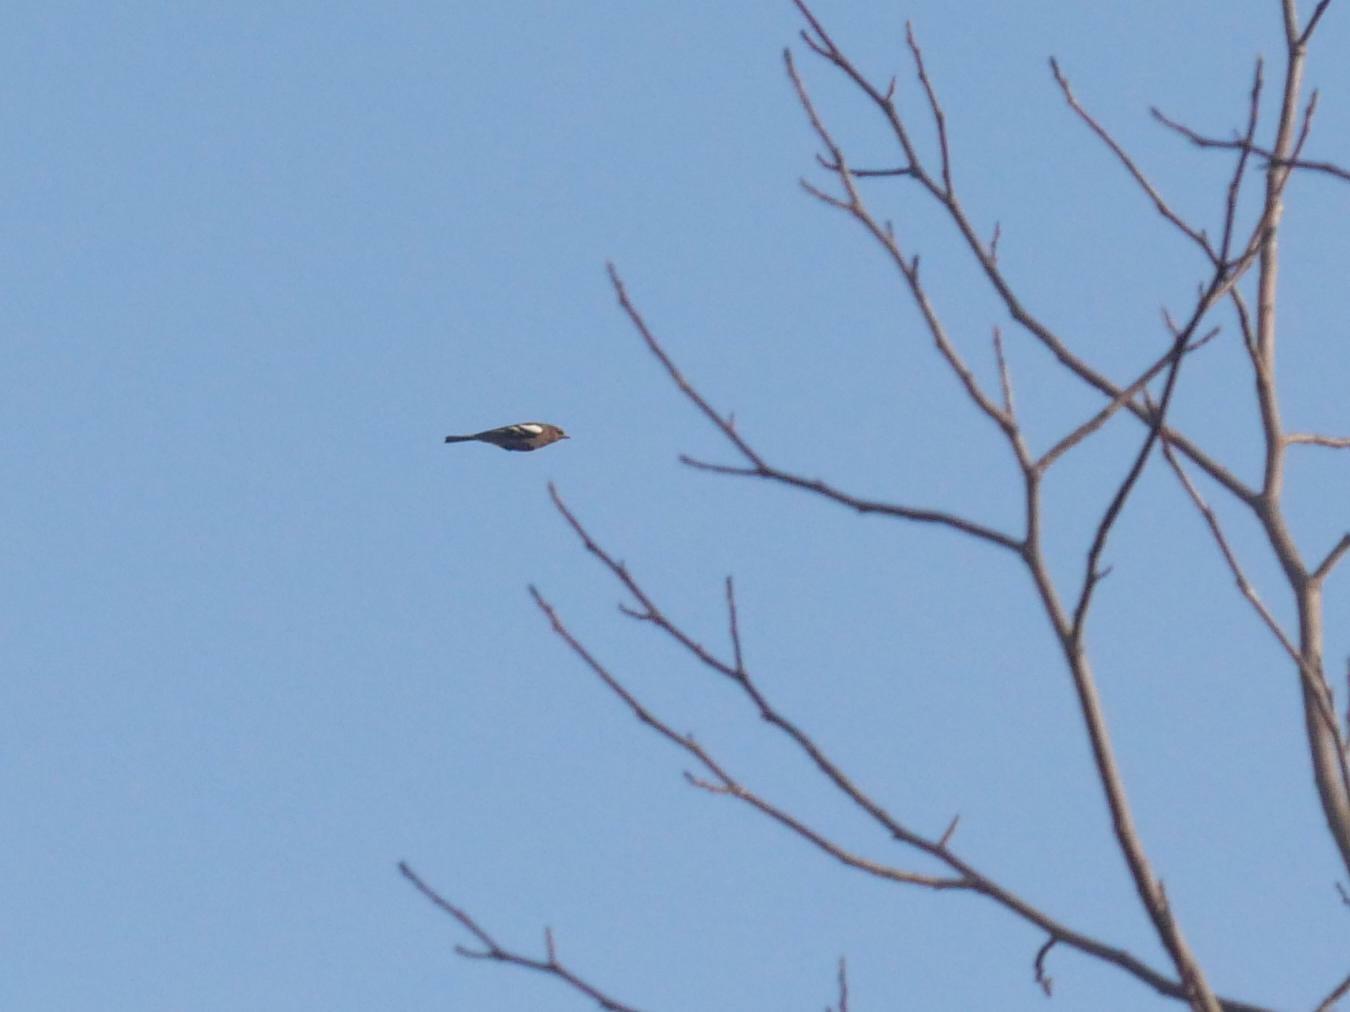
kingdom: Animalia
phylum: Chordata
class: Aves
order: Passeriformes
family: Fringillidae
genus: Fringilla
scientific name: Fringilla coelebs
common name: Common chaffinch
